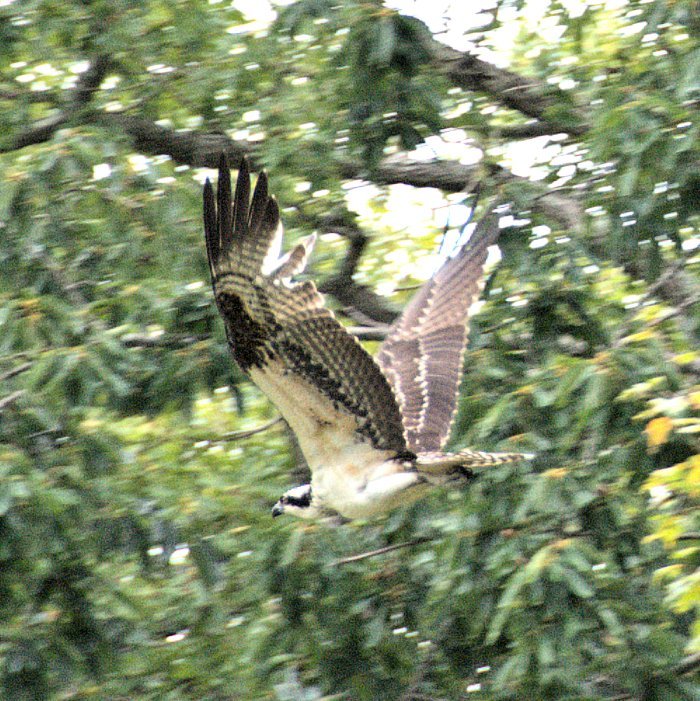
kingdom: Animalia
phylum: Chordata
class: Aves
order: Accipitriformes
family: Pandionidae
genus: Pandion
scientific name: Pandion haliaetus
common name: Osprey
